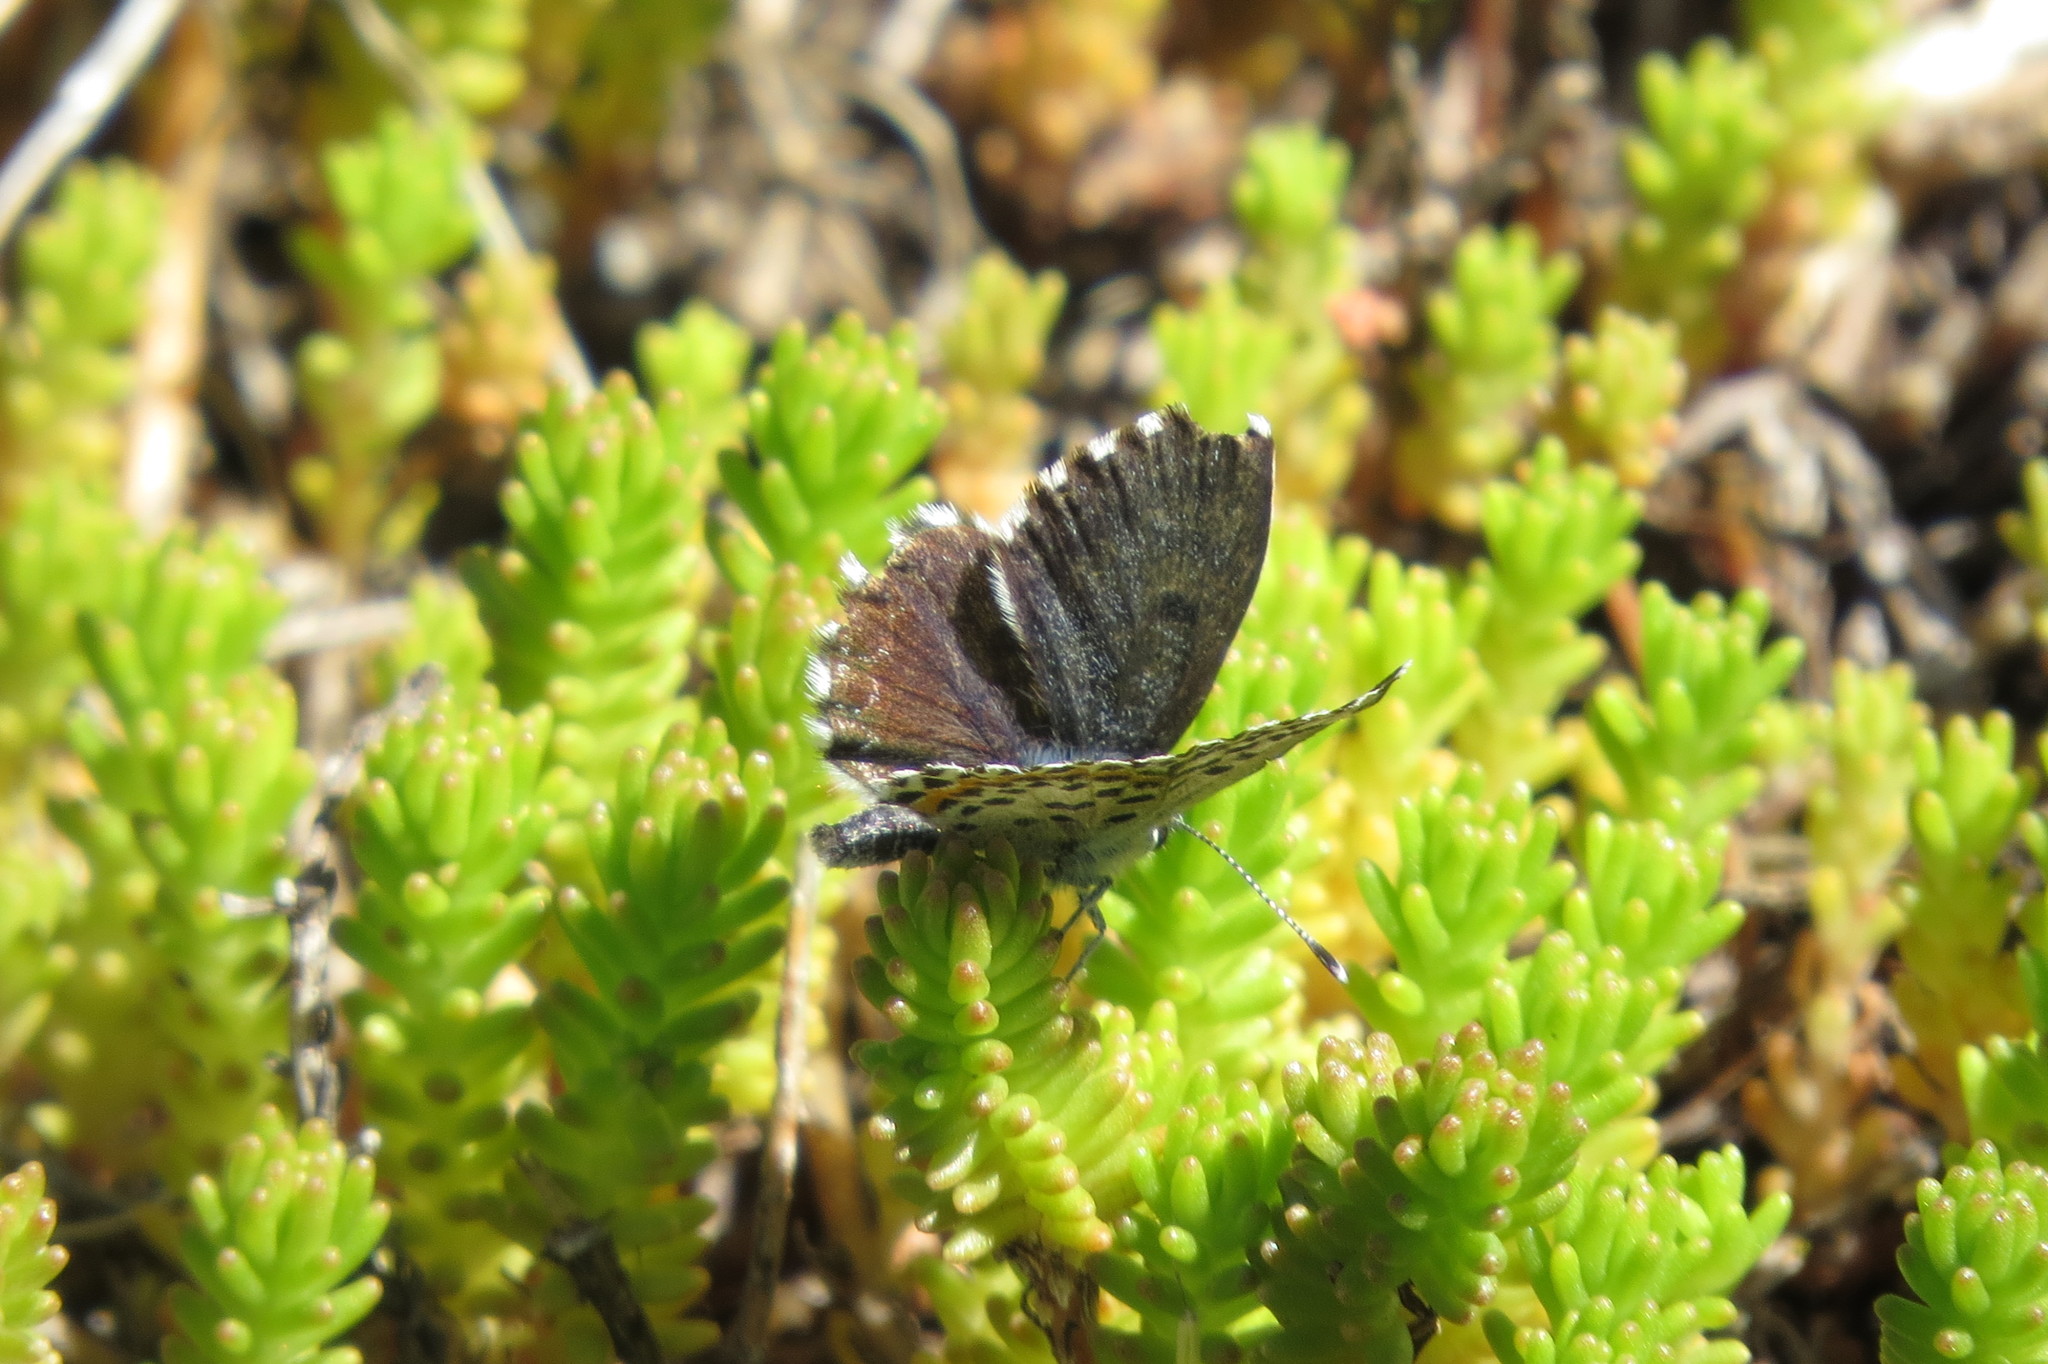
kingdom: Animalia
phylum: Arthropoda
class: Insecta
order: Lepidoptera
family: Lycaenidae
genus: Scolitantides
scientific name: Scolitantides orion
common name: Chequered blue
